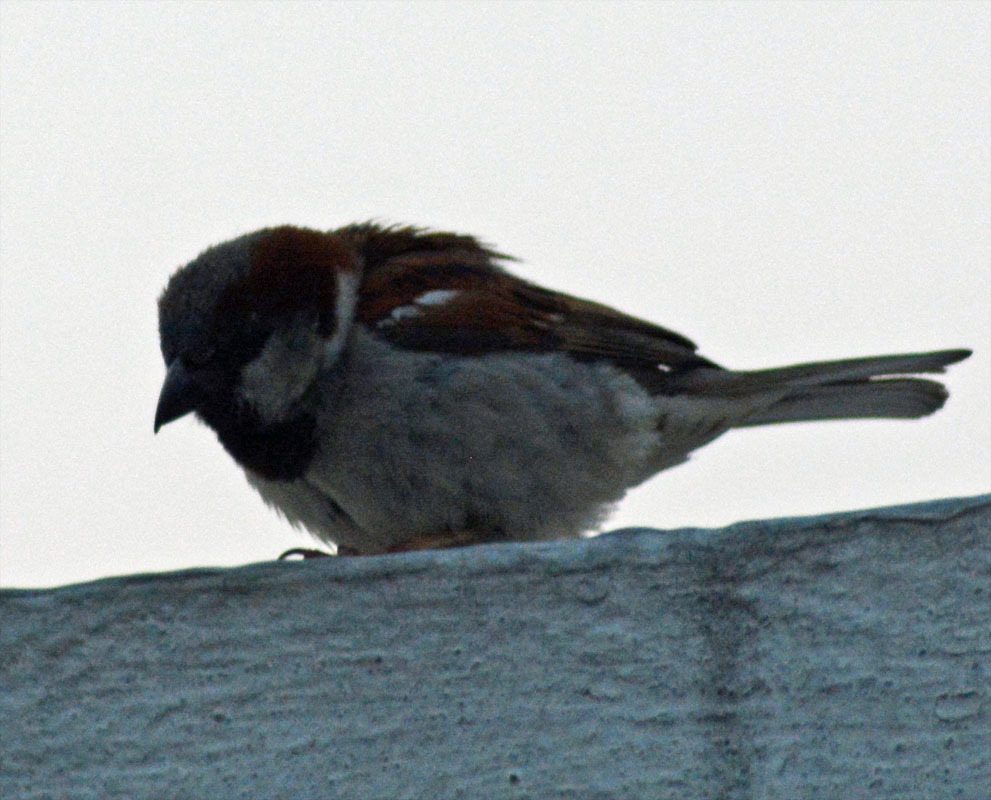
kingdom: Animalia
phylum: Chordata
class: Aves
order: Passeriformes
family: Passeridae
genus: Passer
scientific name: Passer domesticus
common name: House sparrow
